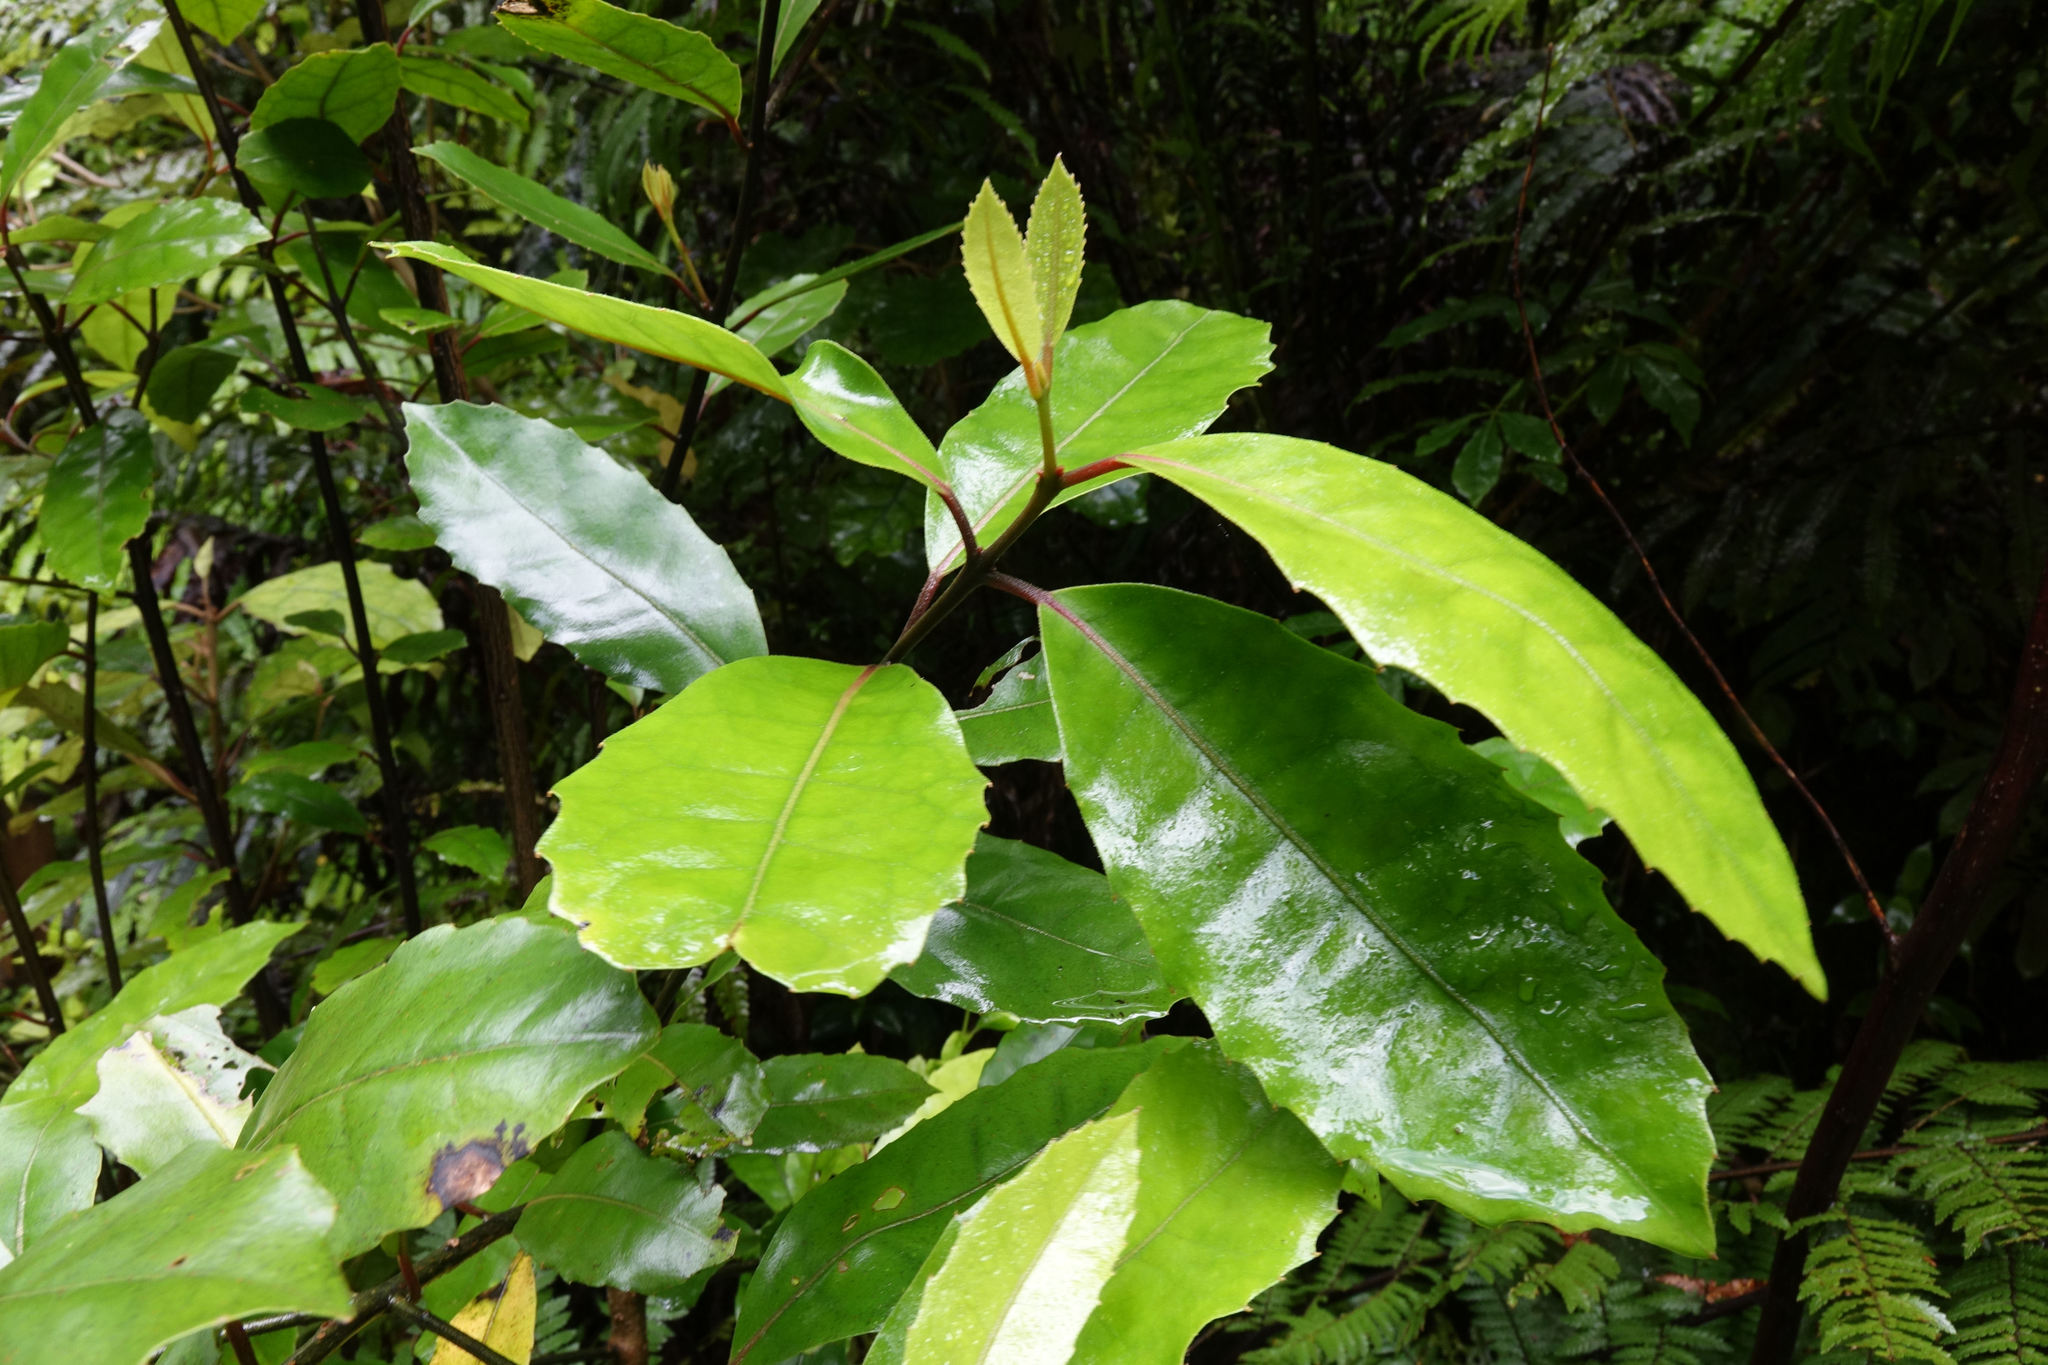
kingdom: Plantae
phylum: Tracheophyta
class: Magnoliopsida
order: Laurales
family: Monimiaceae
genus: Hedycarya
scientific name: Hedycarya arborea
